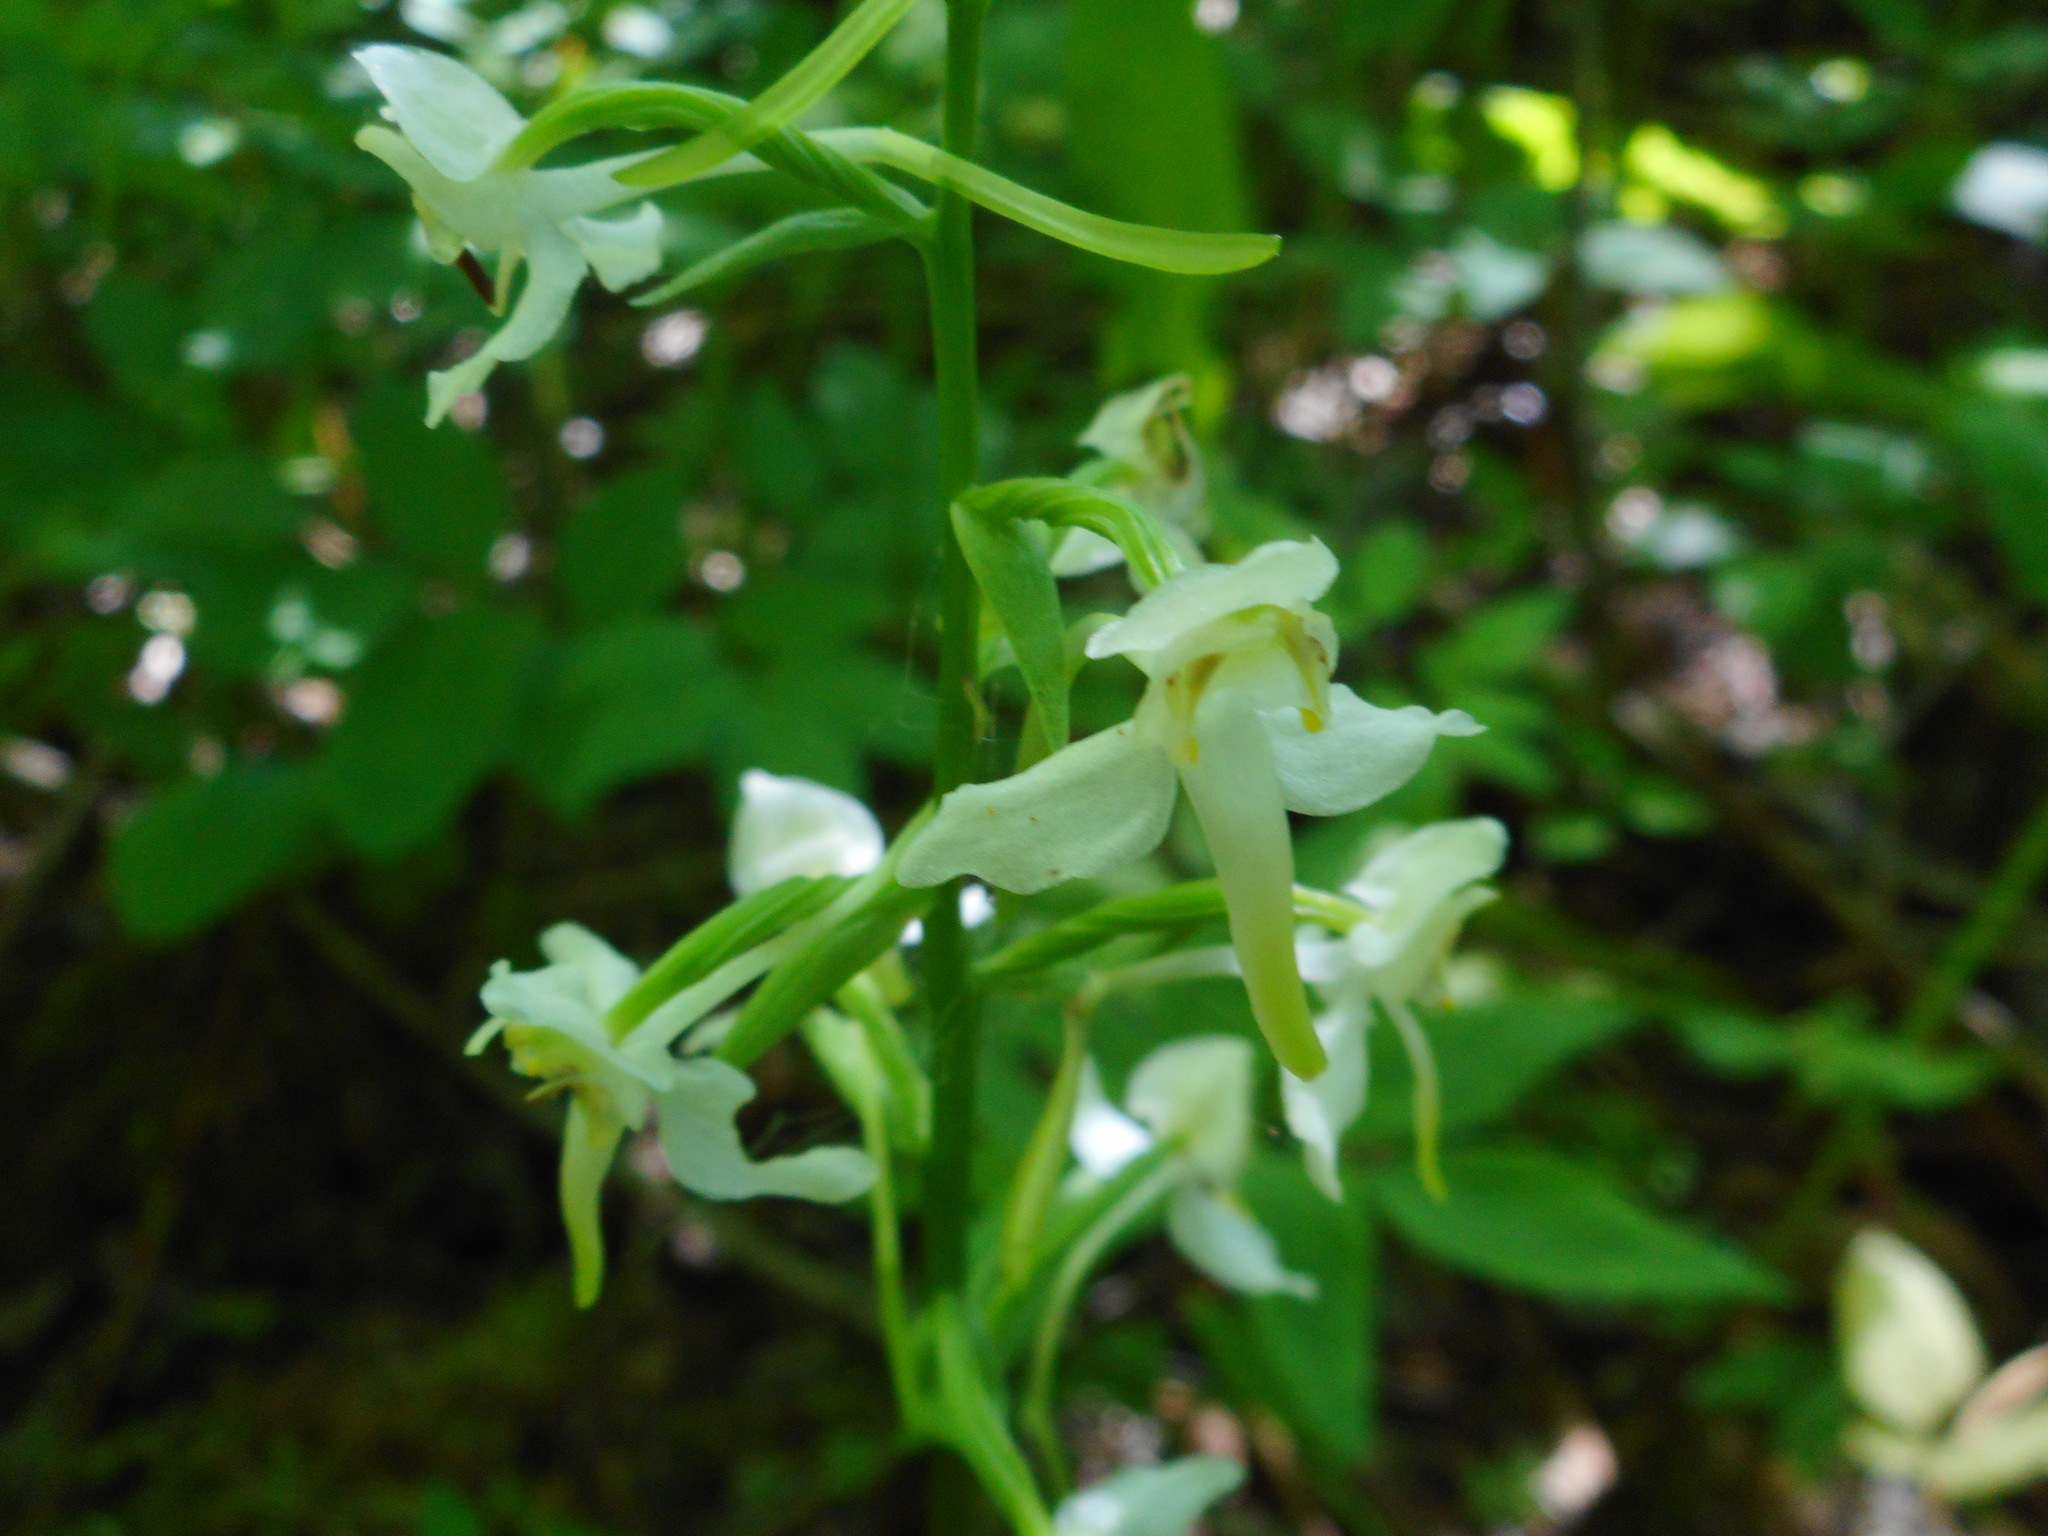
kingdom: Plantae
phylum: Tracheophyta
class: Liliopsida
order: Asparagales
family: Orchidaceae
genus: Platanthera
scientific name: Platanthera chlorantha
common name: Greater butterfly-orchid
